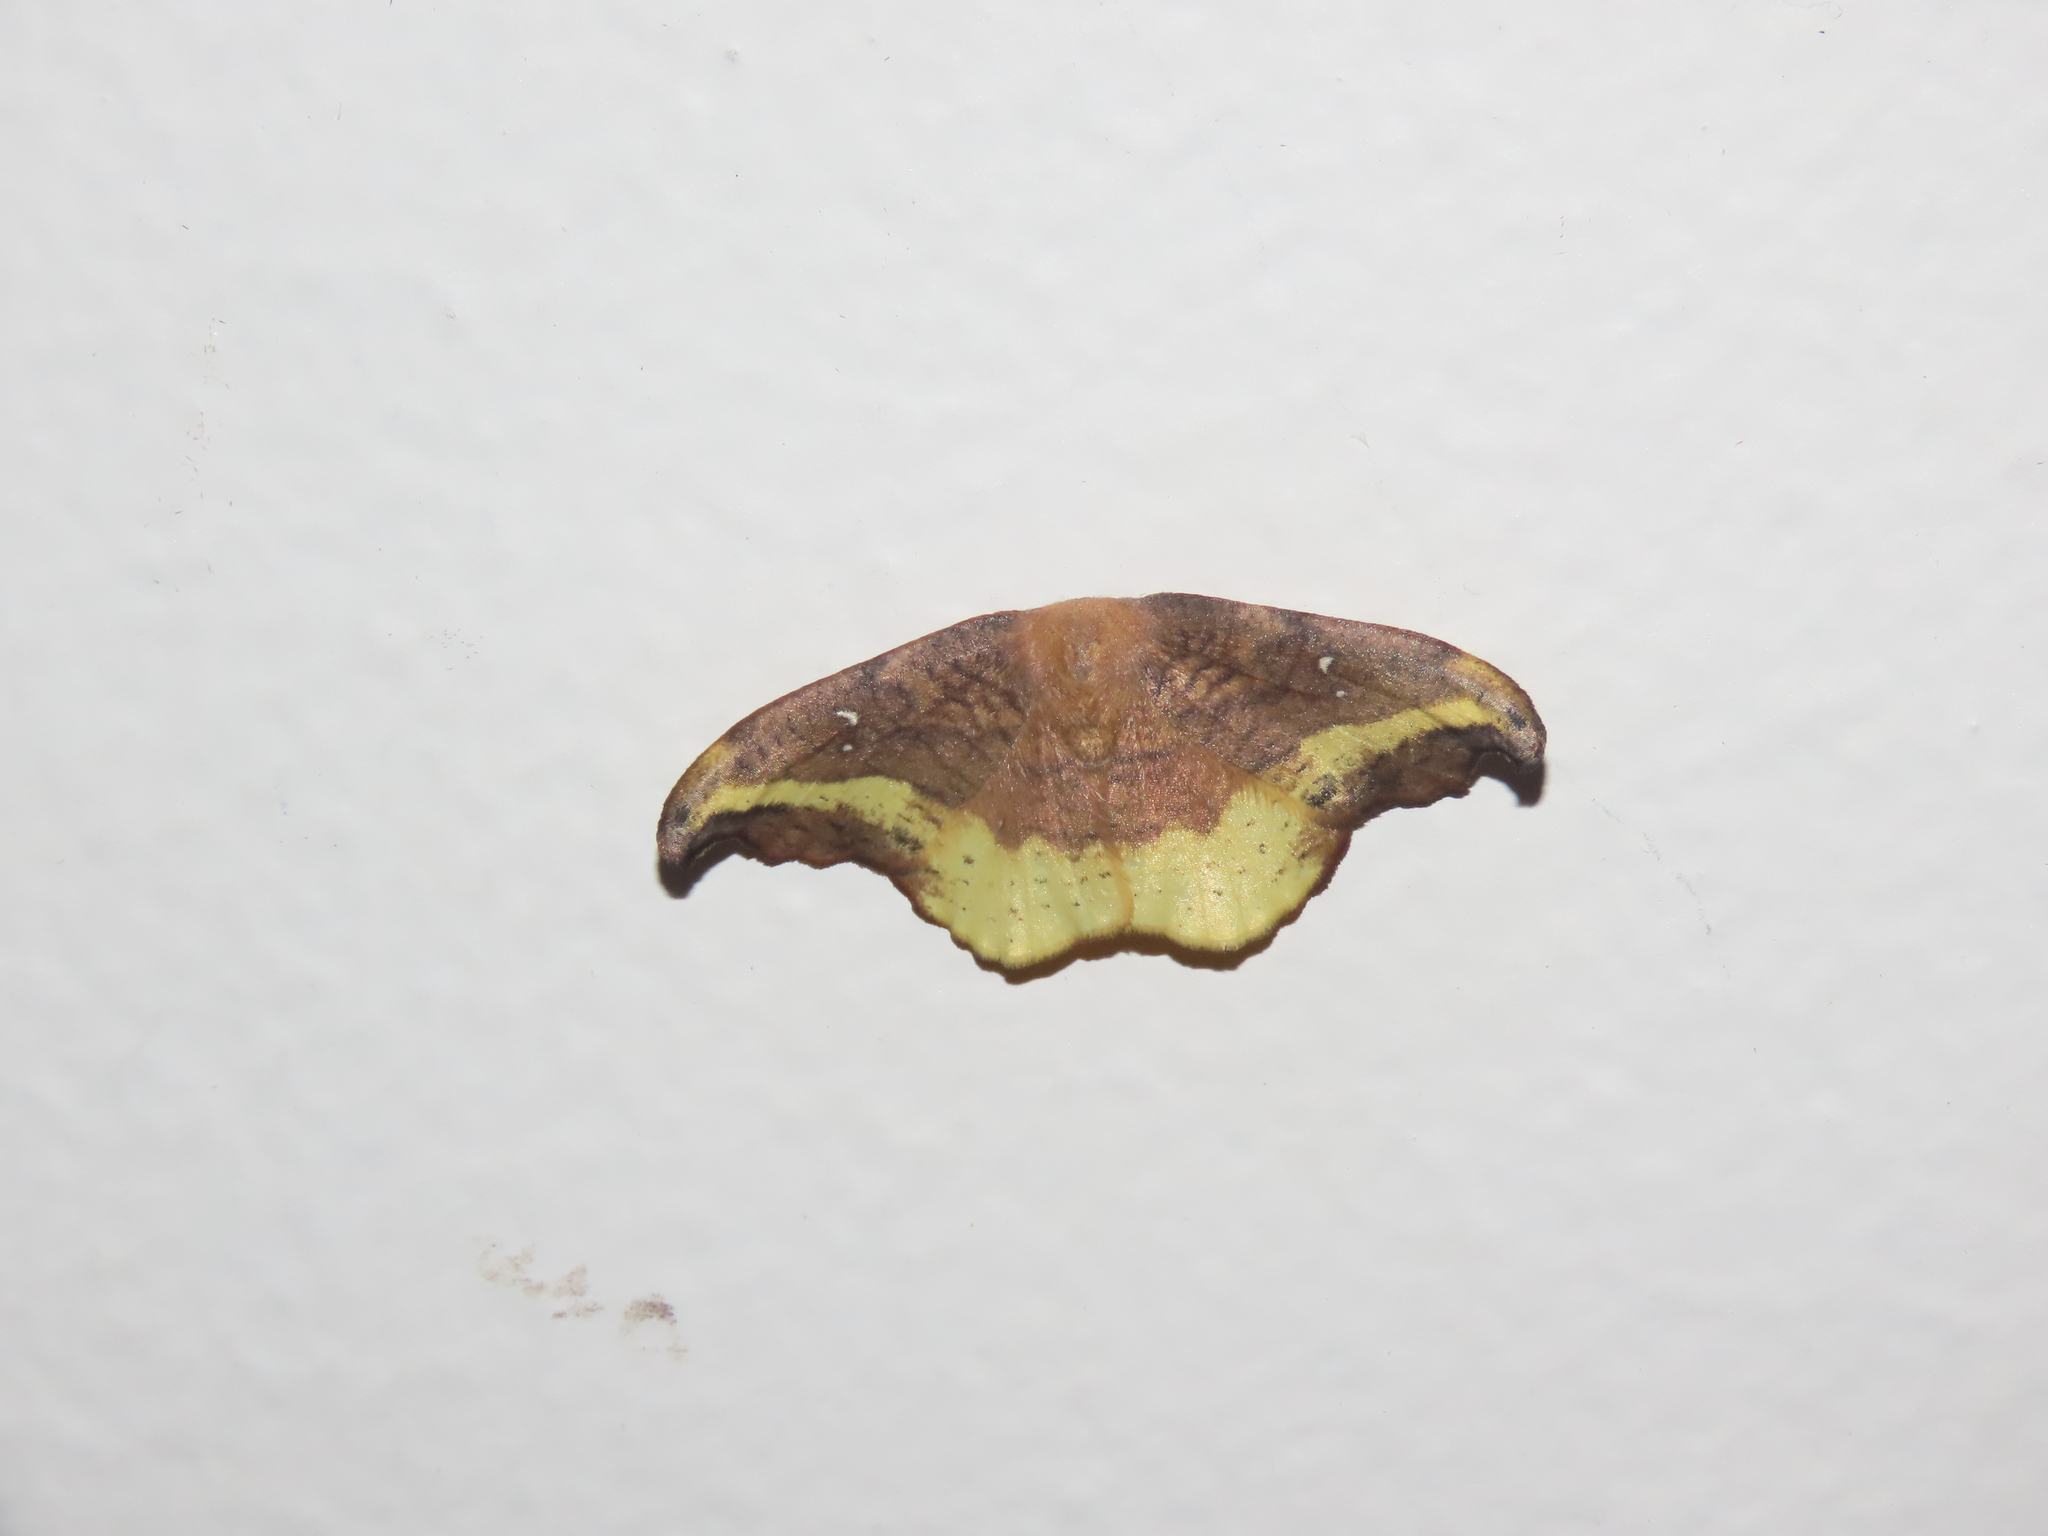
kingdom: Animalia
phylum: Arthropoda
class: Insecta
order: Lepidoptera
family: Drepanidae
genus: Oreta
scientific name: Oreta rosea
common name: Rose hooktip
